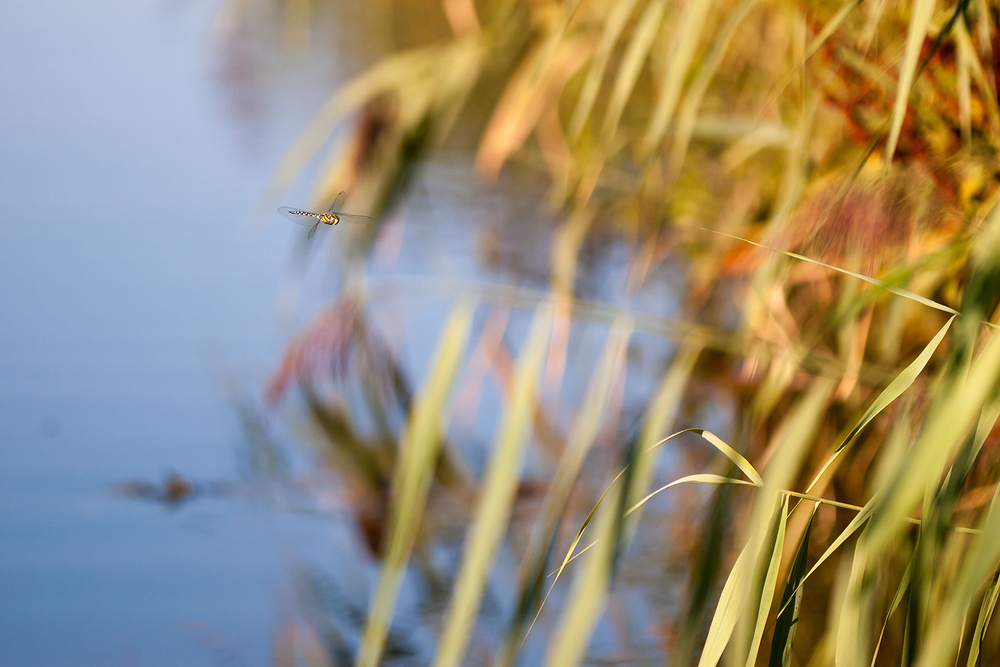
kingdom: Animalia
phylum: Arthropoda
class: Insecta
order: Odonata
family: Aeshnidae
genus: Aeshna
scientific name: Aeshna mixta
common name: Migrant hawker
